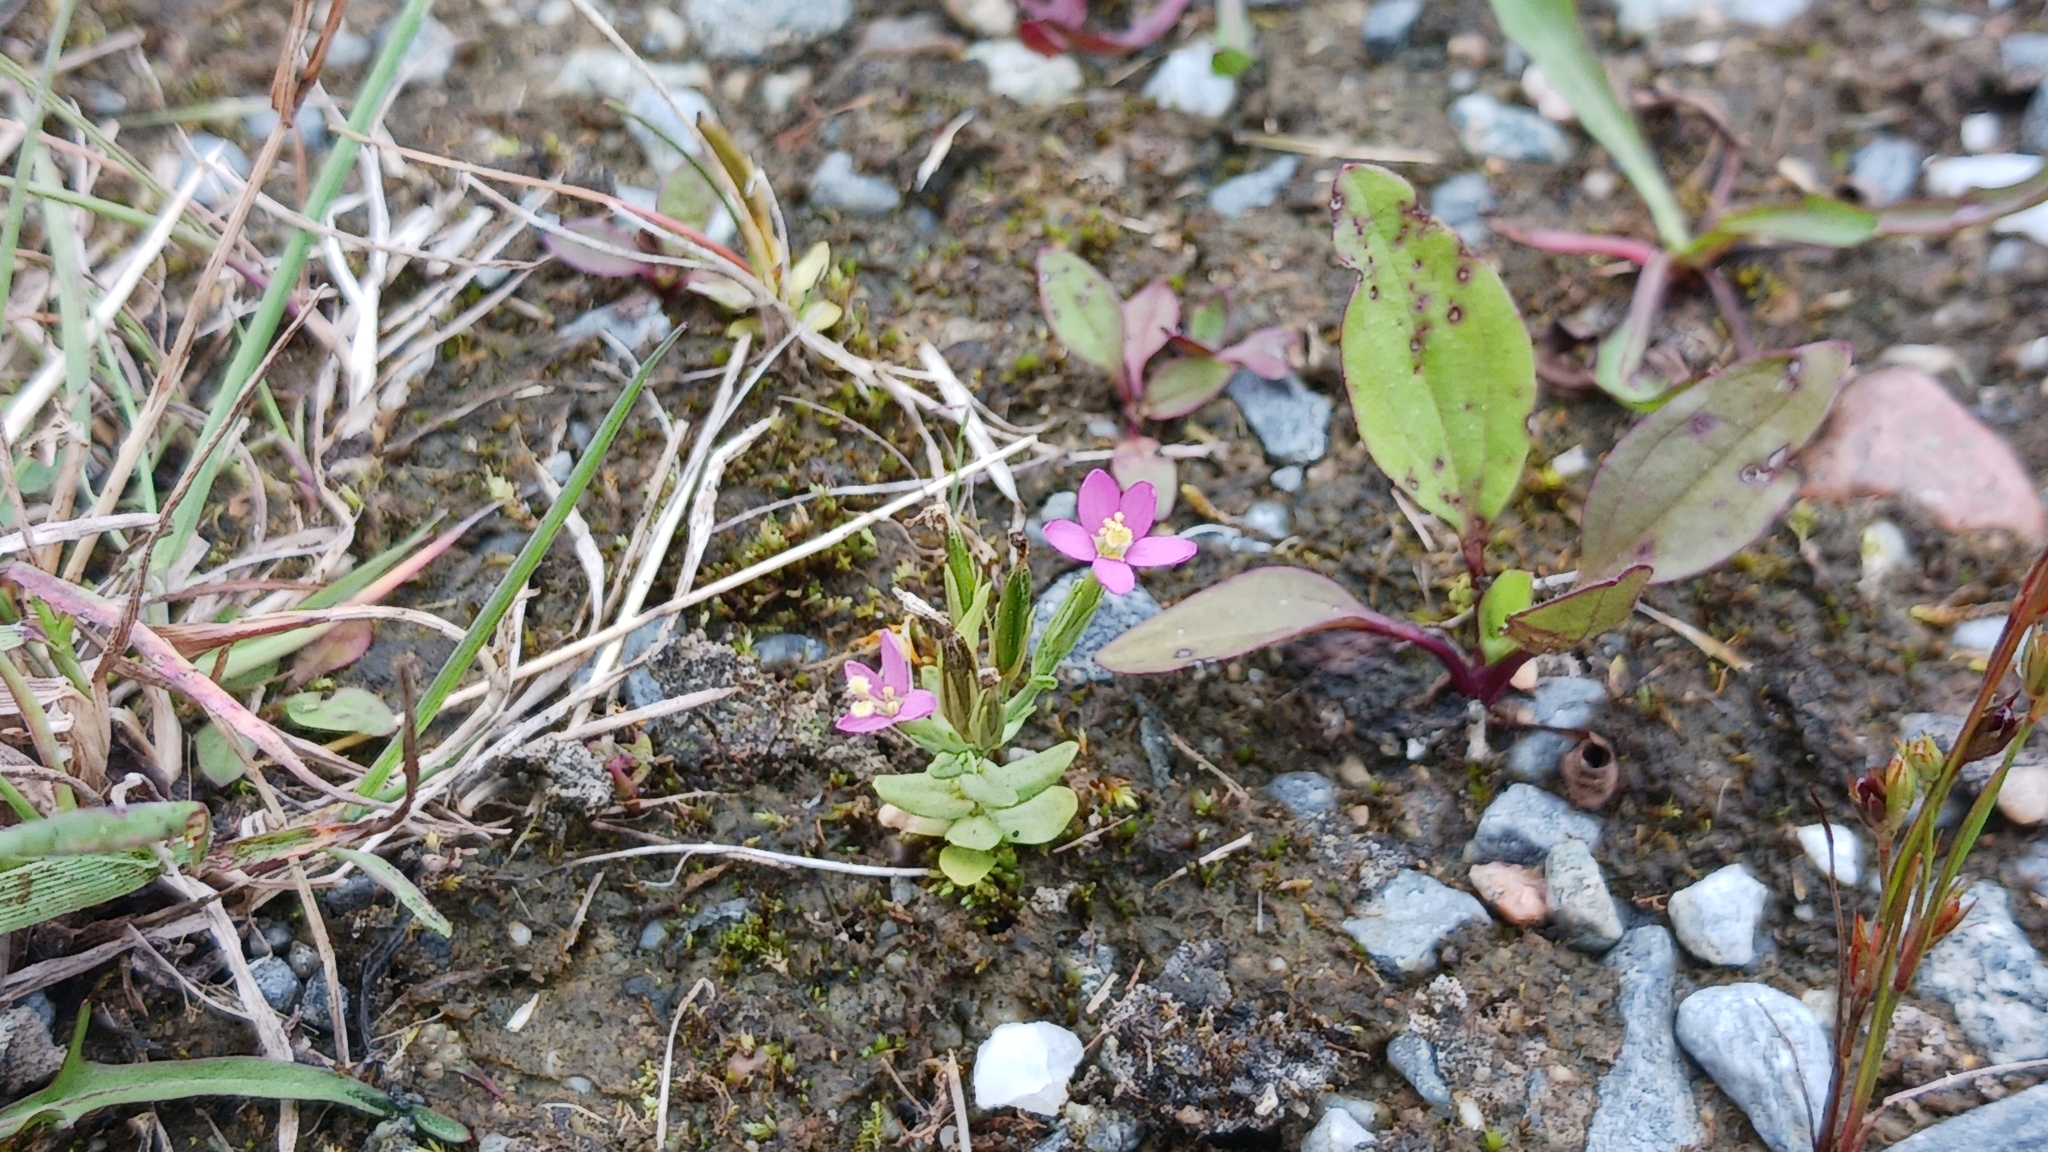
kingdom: Plantae
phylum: Tracheophyta
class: Magnoliopsida
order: Gentianales
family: Gentianaceae
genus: Centaurium
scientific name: Centaurium pulchellum
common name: Lesser centaury
